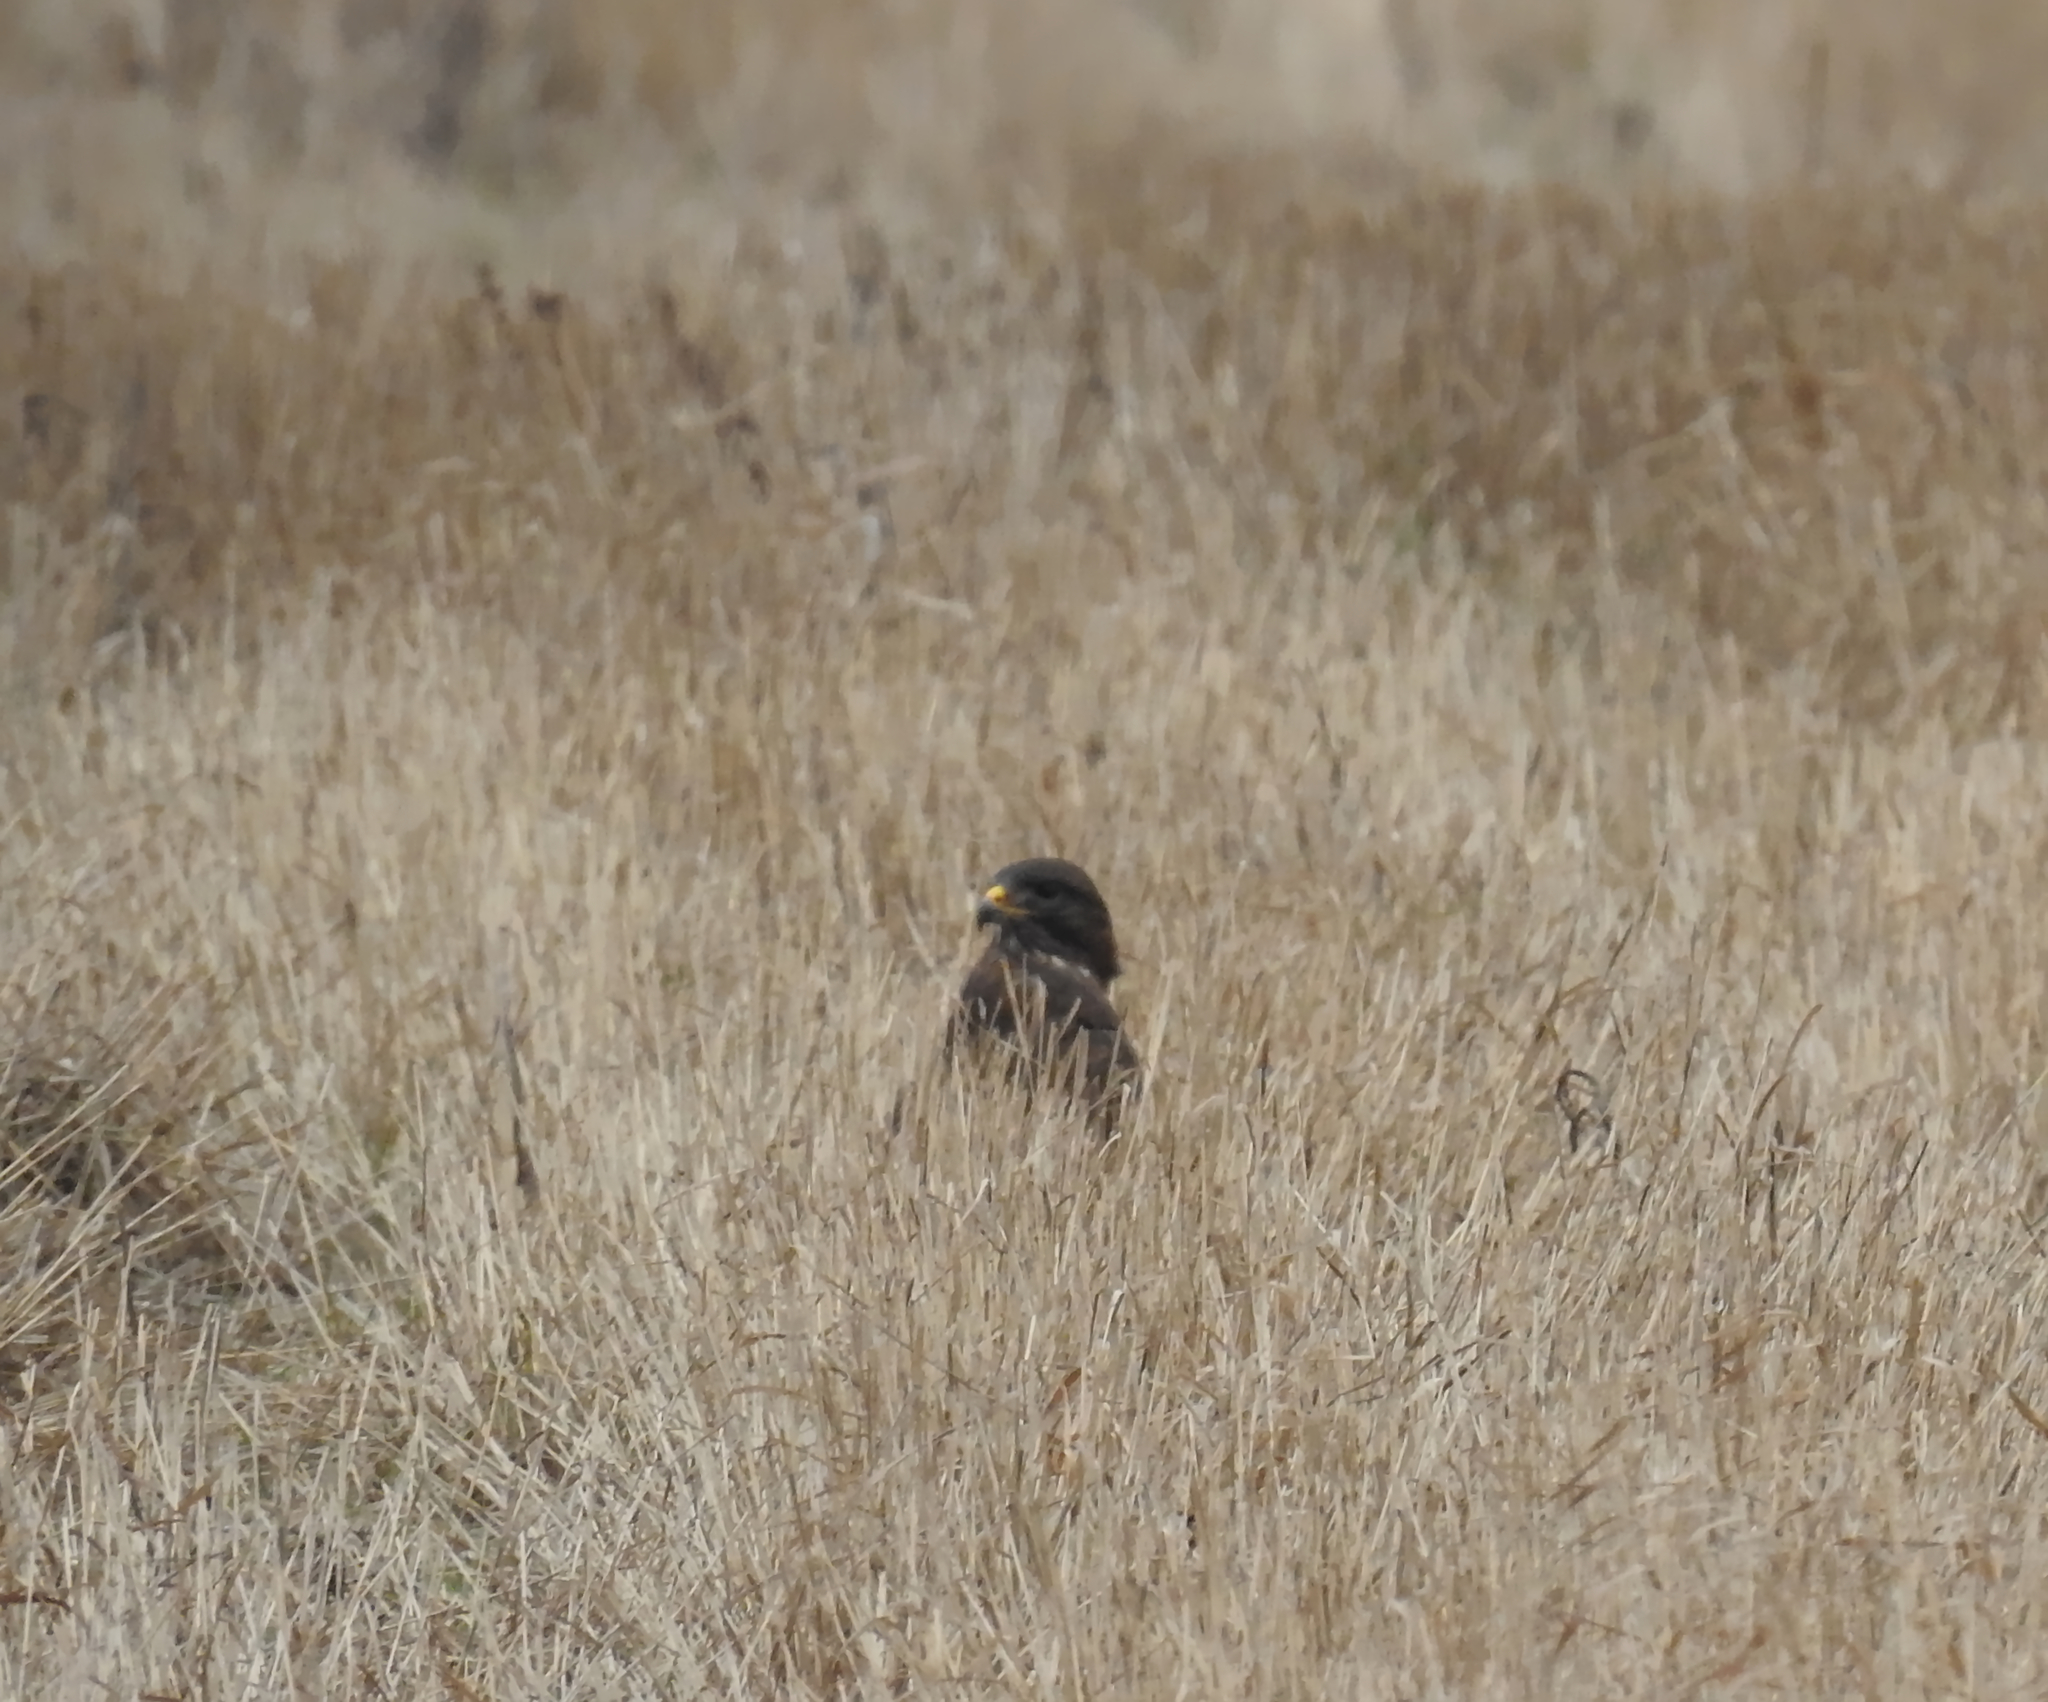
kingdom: Animalia
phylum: Chordata
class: Aves
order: Accipitriformes
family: Accipitridae
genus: Buteo
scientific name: Buteo buteo
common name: Common buzzard
